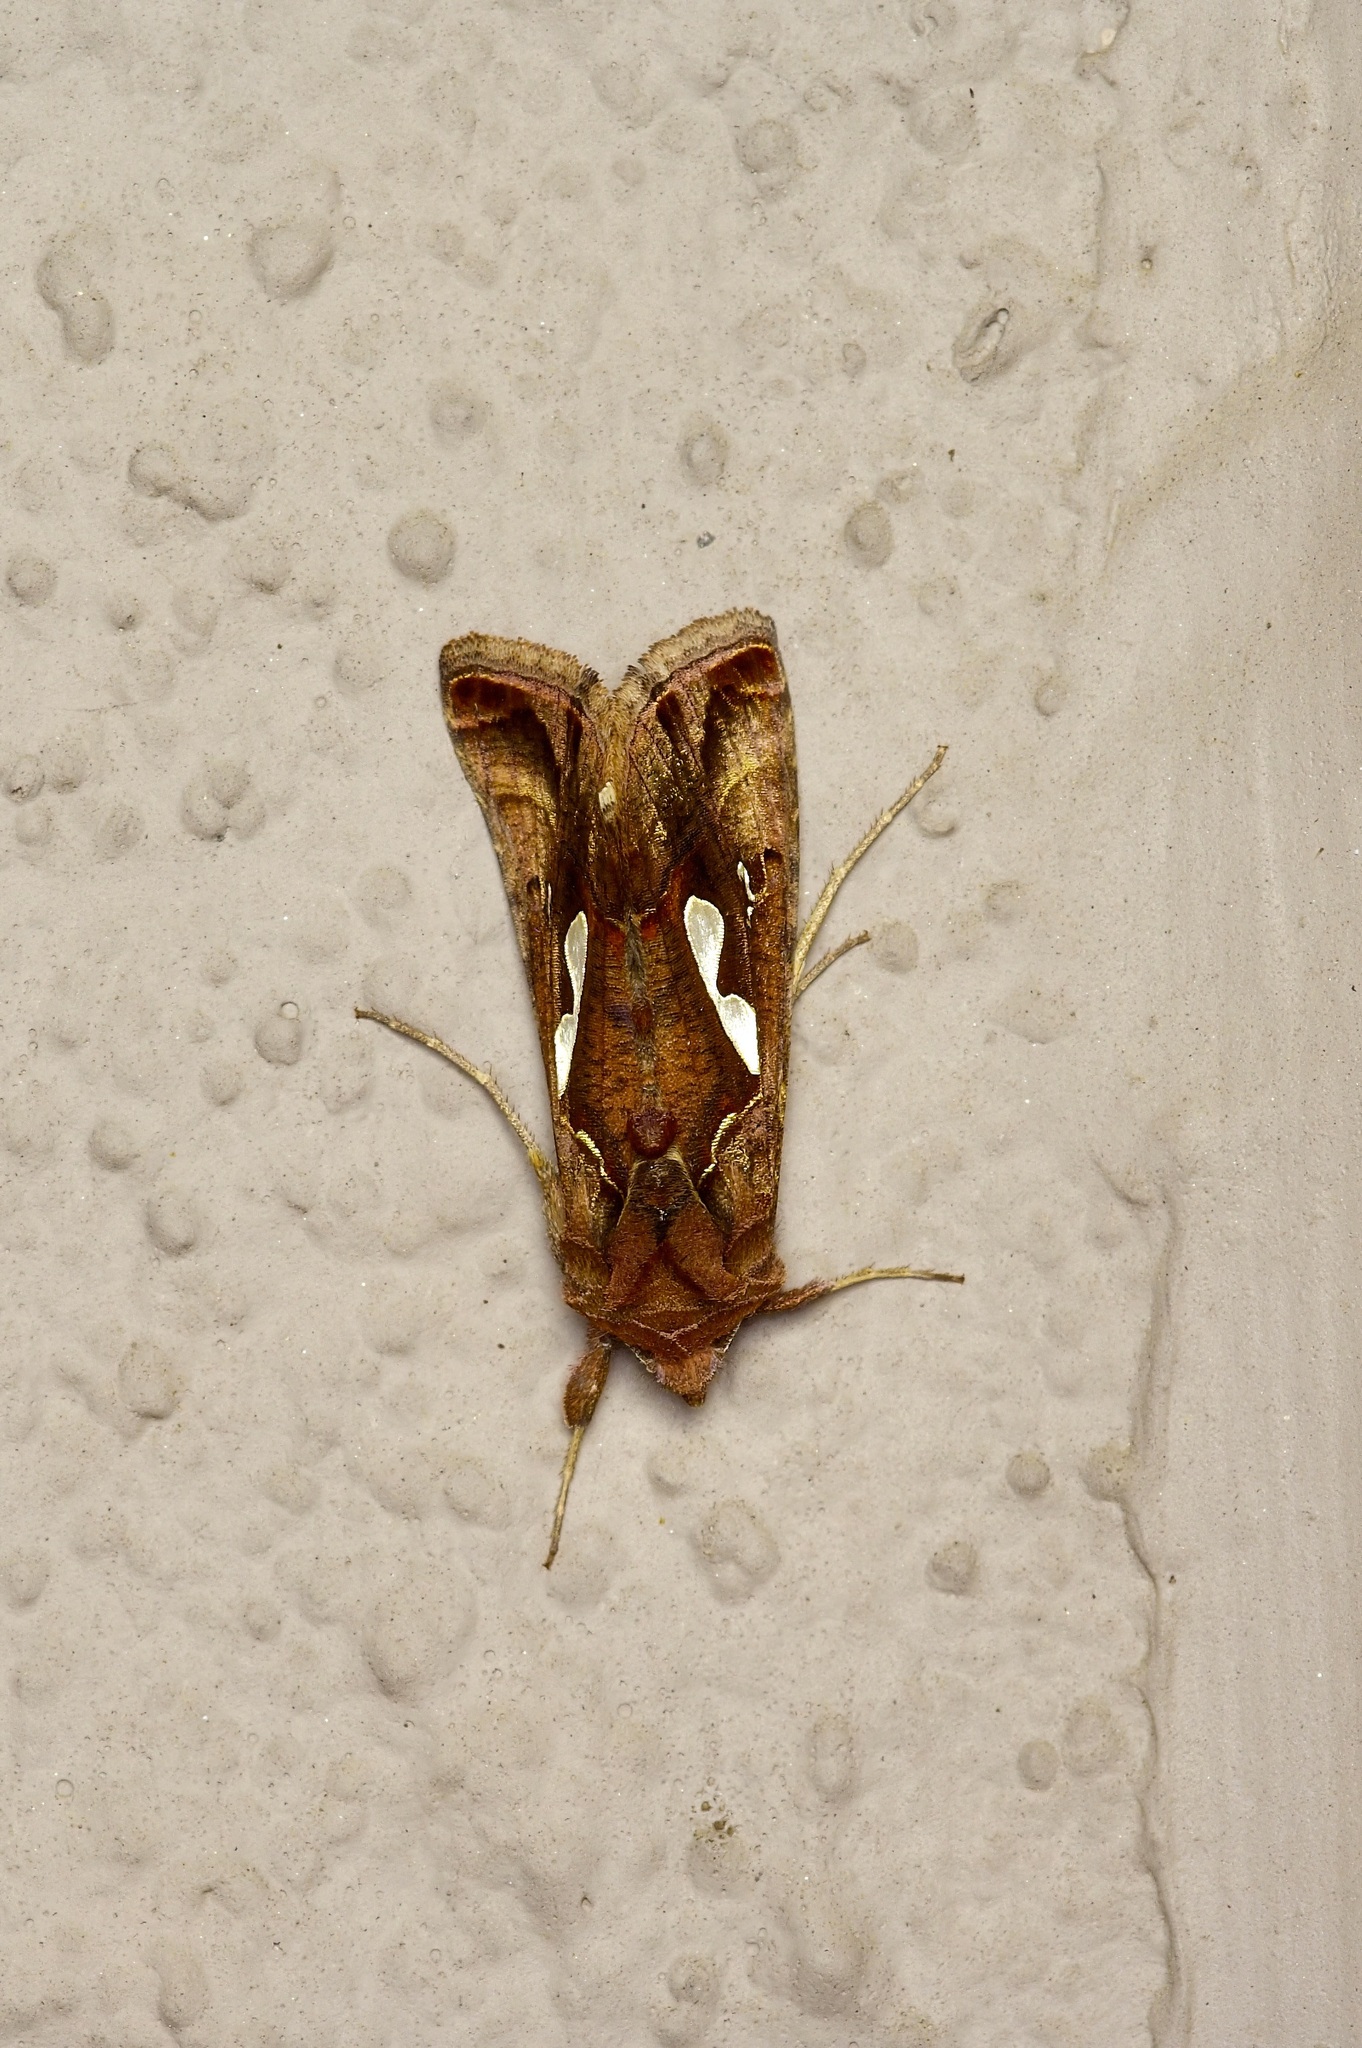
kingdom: Animalia
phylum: Arthropoda
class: Insecta
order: Lepidoptera
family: Noctuidae
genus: Megalographa
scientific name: Megalographa biloba
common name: Cutworm
